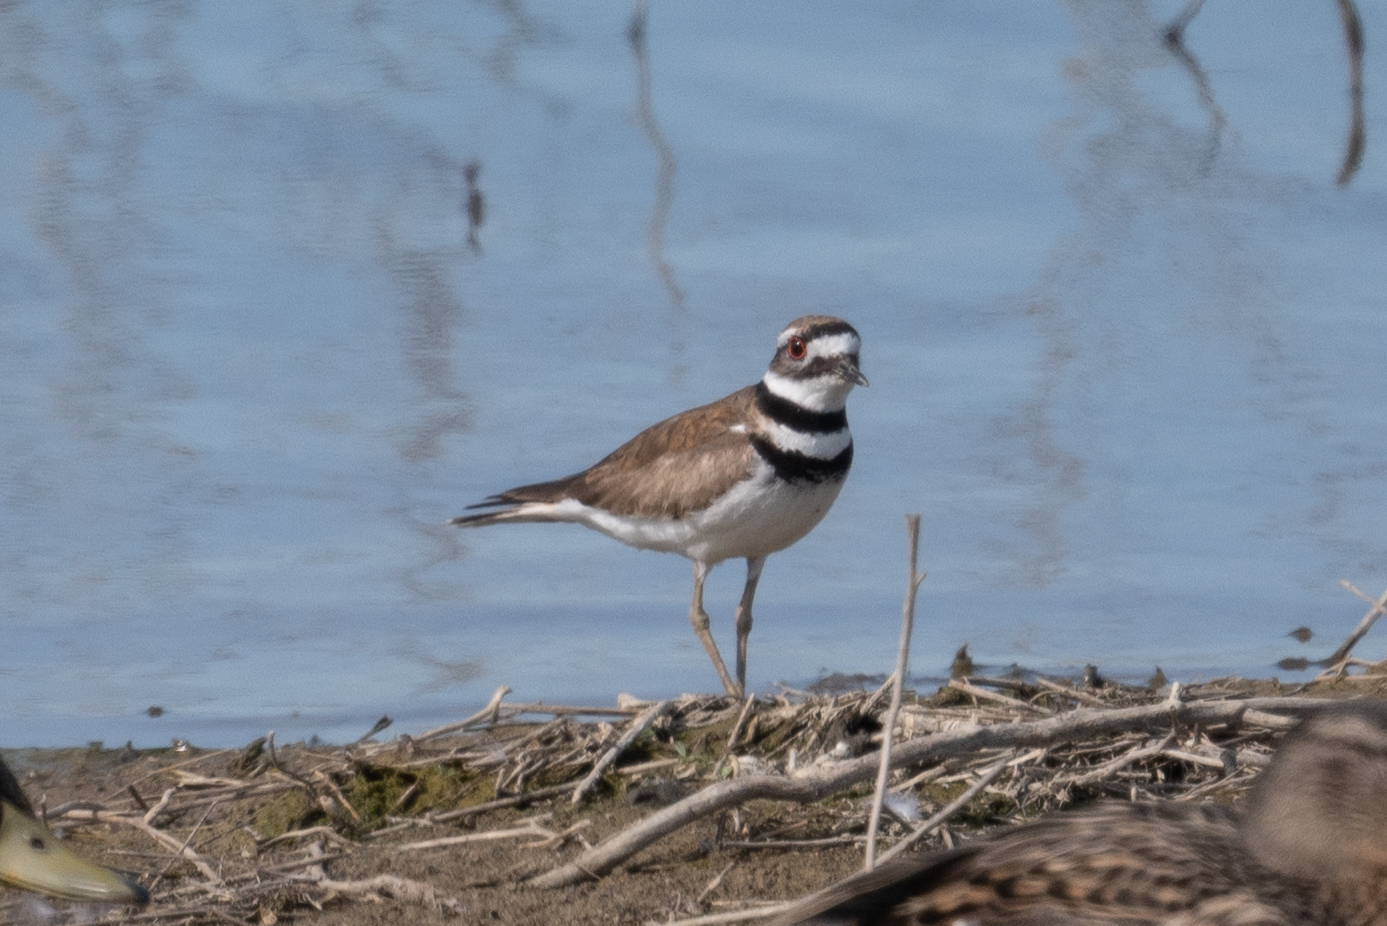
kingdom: Animalia
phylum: Chordata
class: Aves
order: Charadriiformes
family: Charadriidae
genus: Charadrius
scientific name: Charadrius vociferus
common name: Killdeer
